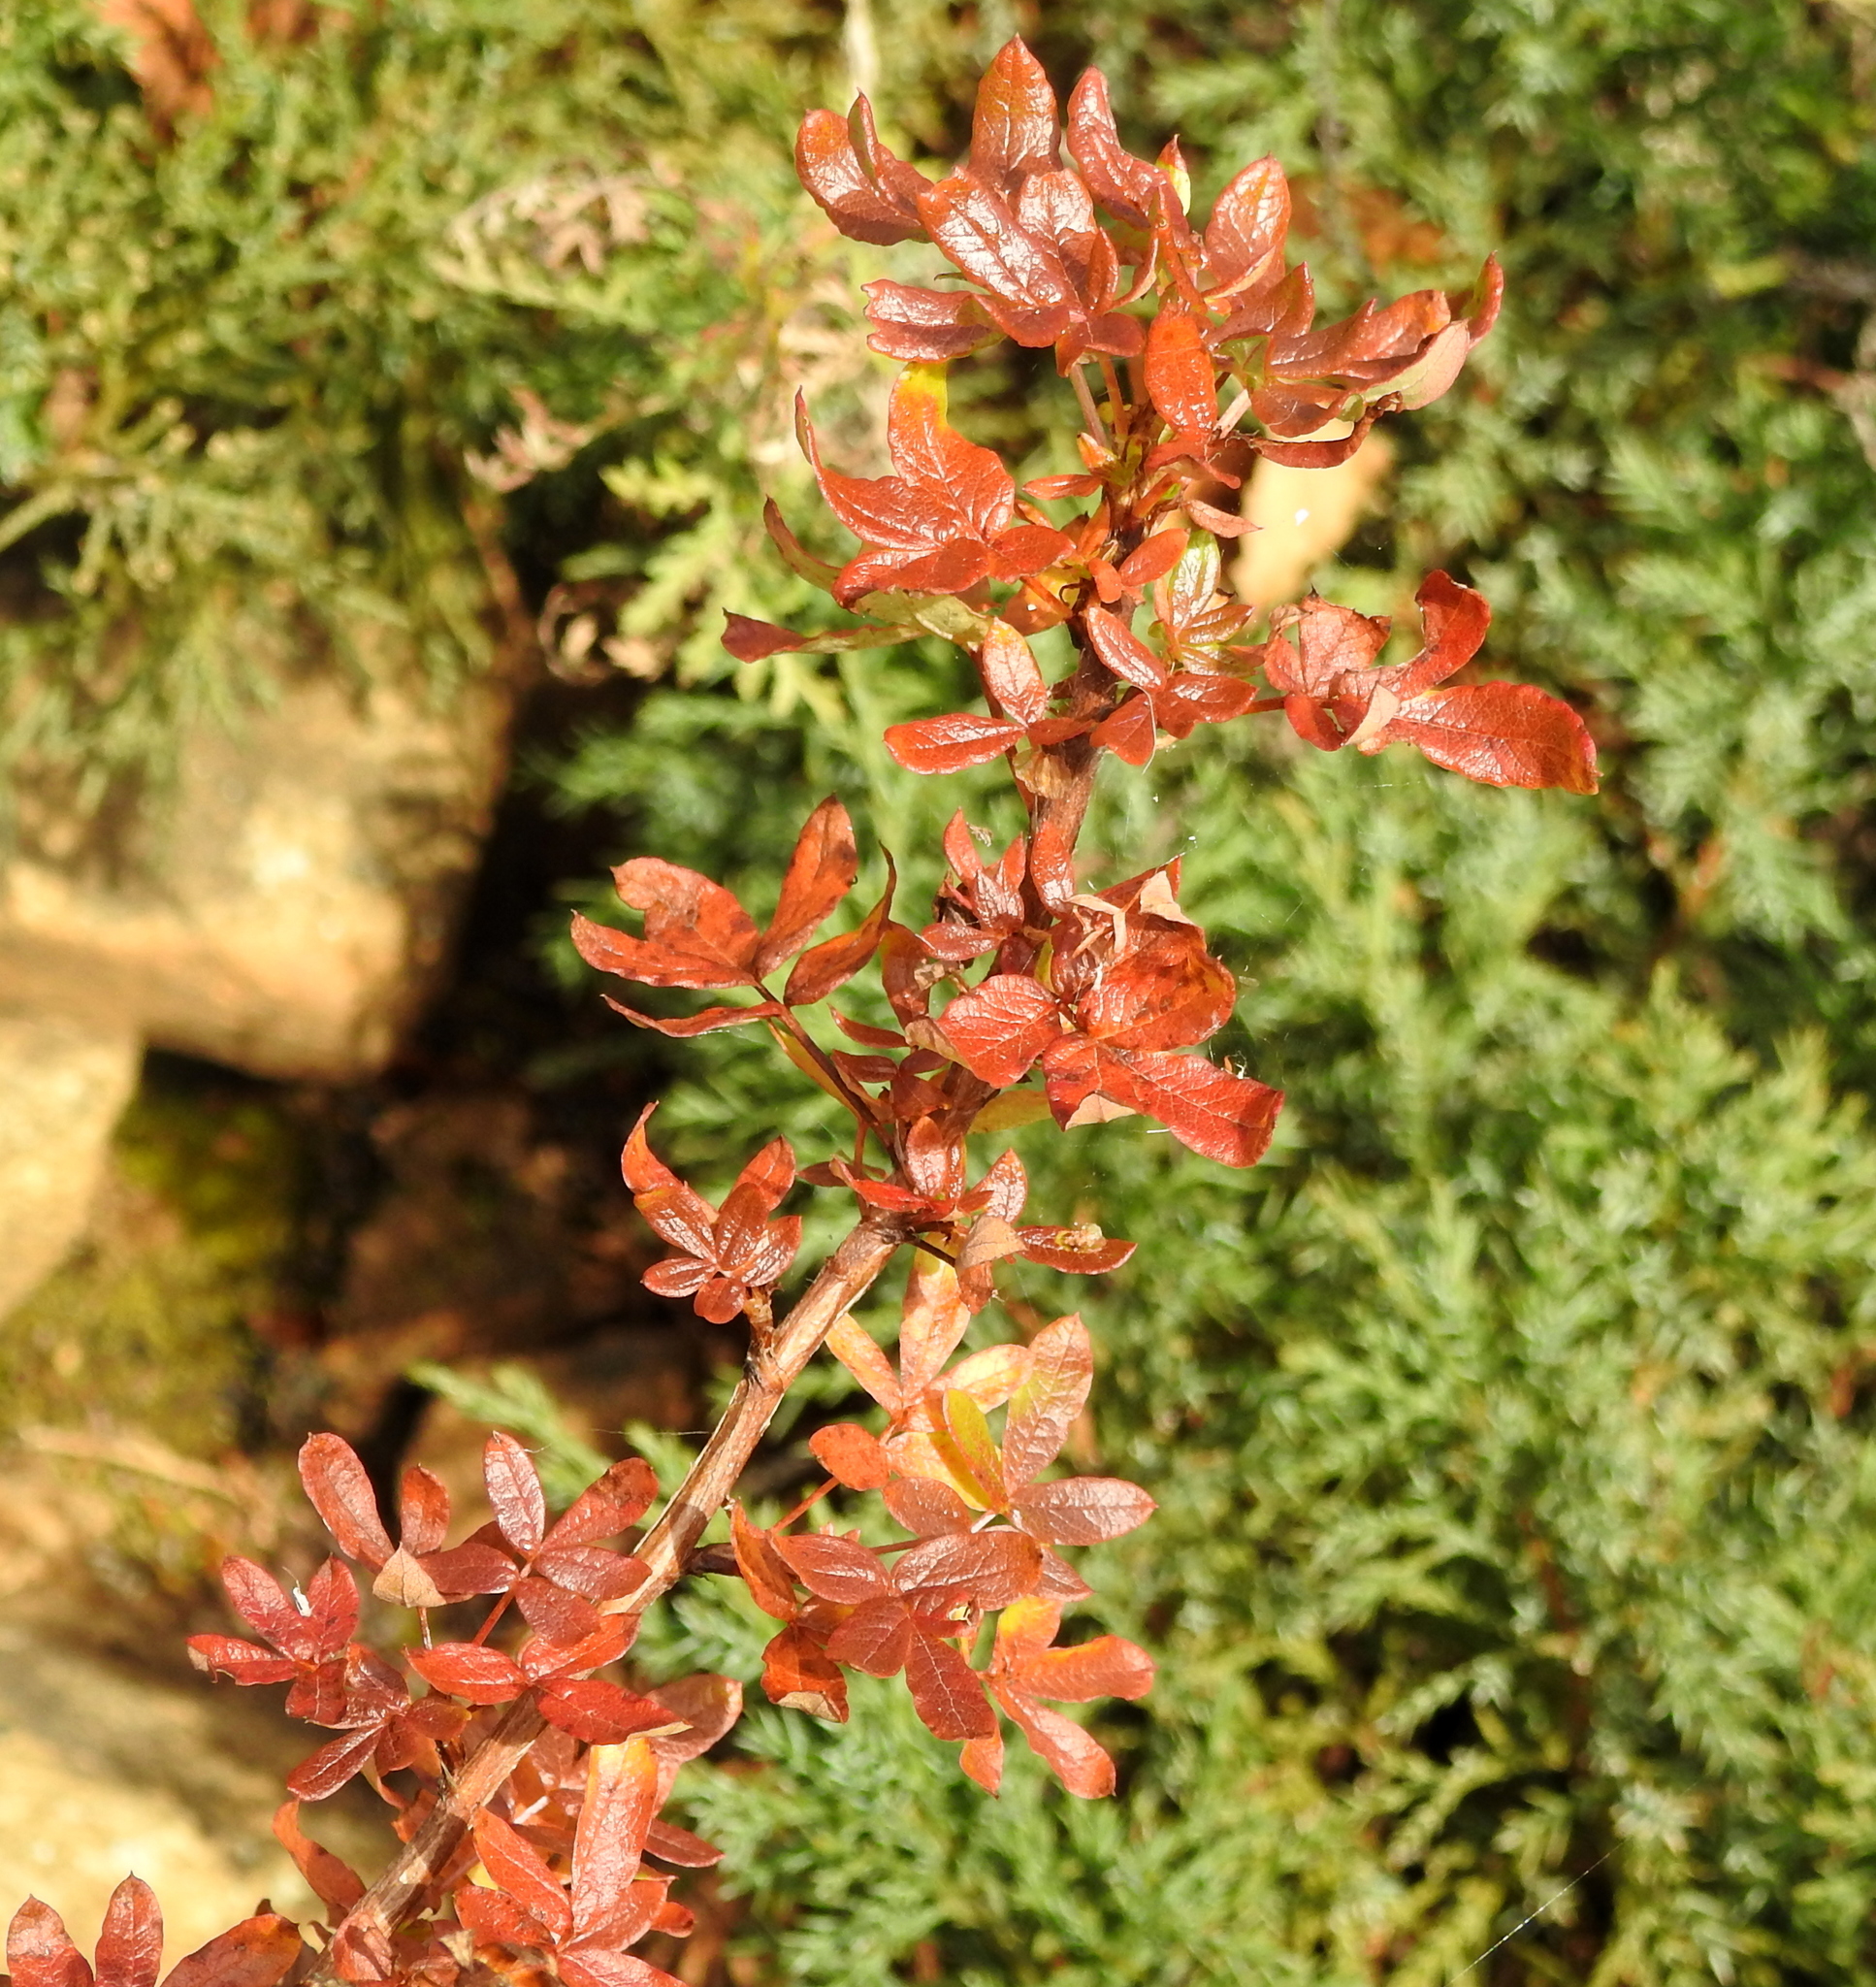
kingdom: Plantae
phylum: Tracheophyta
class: Magnoliopsida
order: Rosales
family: Rosaceae
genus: Dasiphora
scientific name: Dasiphora fruticosa
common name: Shrubby cinquefoil
